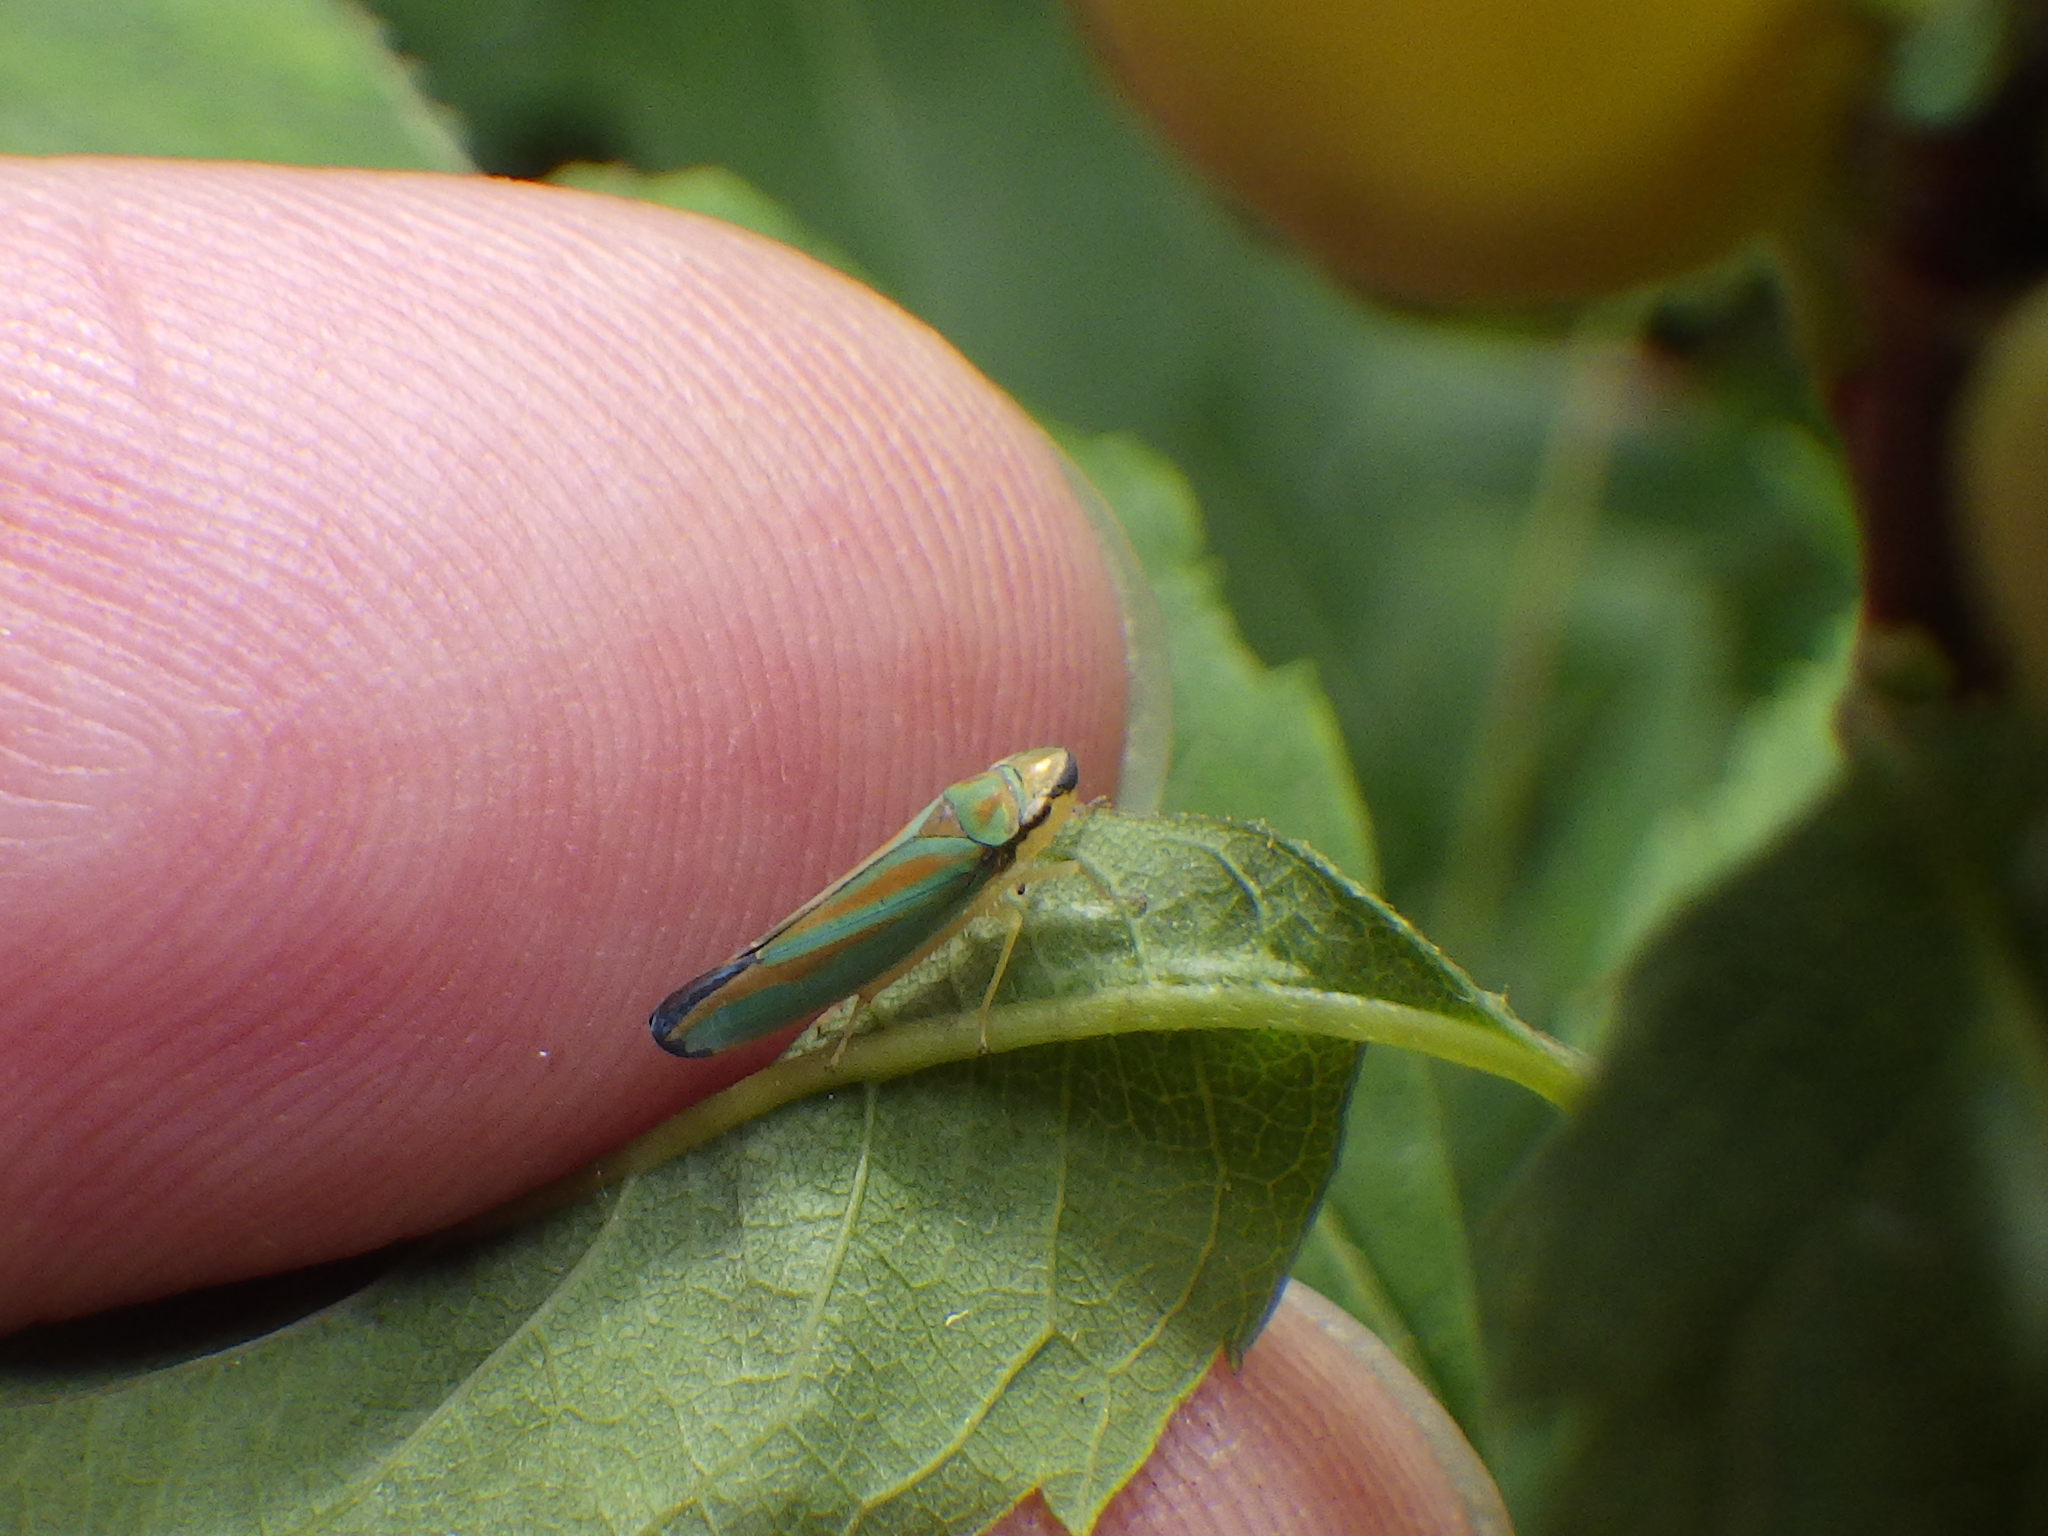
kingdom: Animalia
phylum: Arthropoda
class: Insecta
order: Hemiptera
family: Cicadellidae
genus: Graphocephala
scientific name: Graphocephala fennahi
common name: Rhododendron leafhopper
